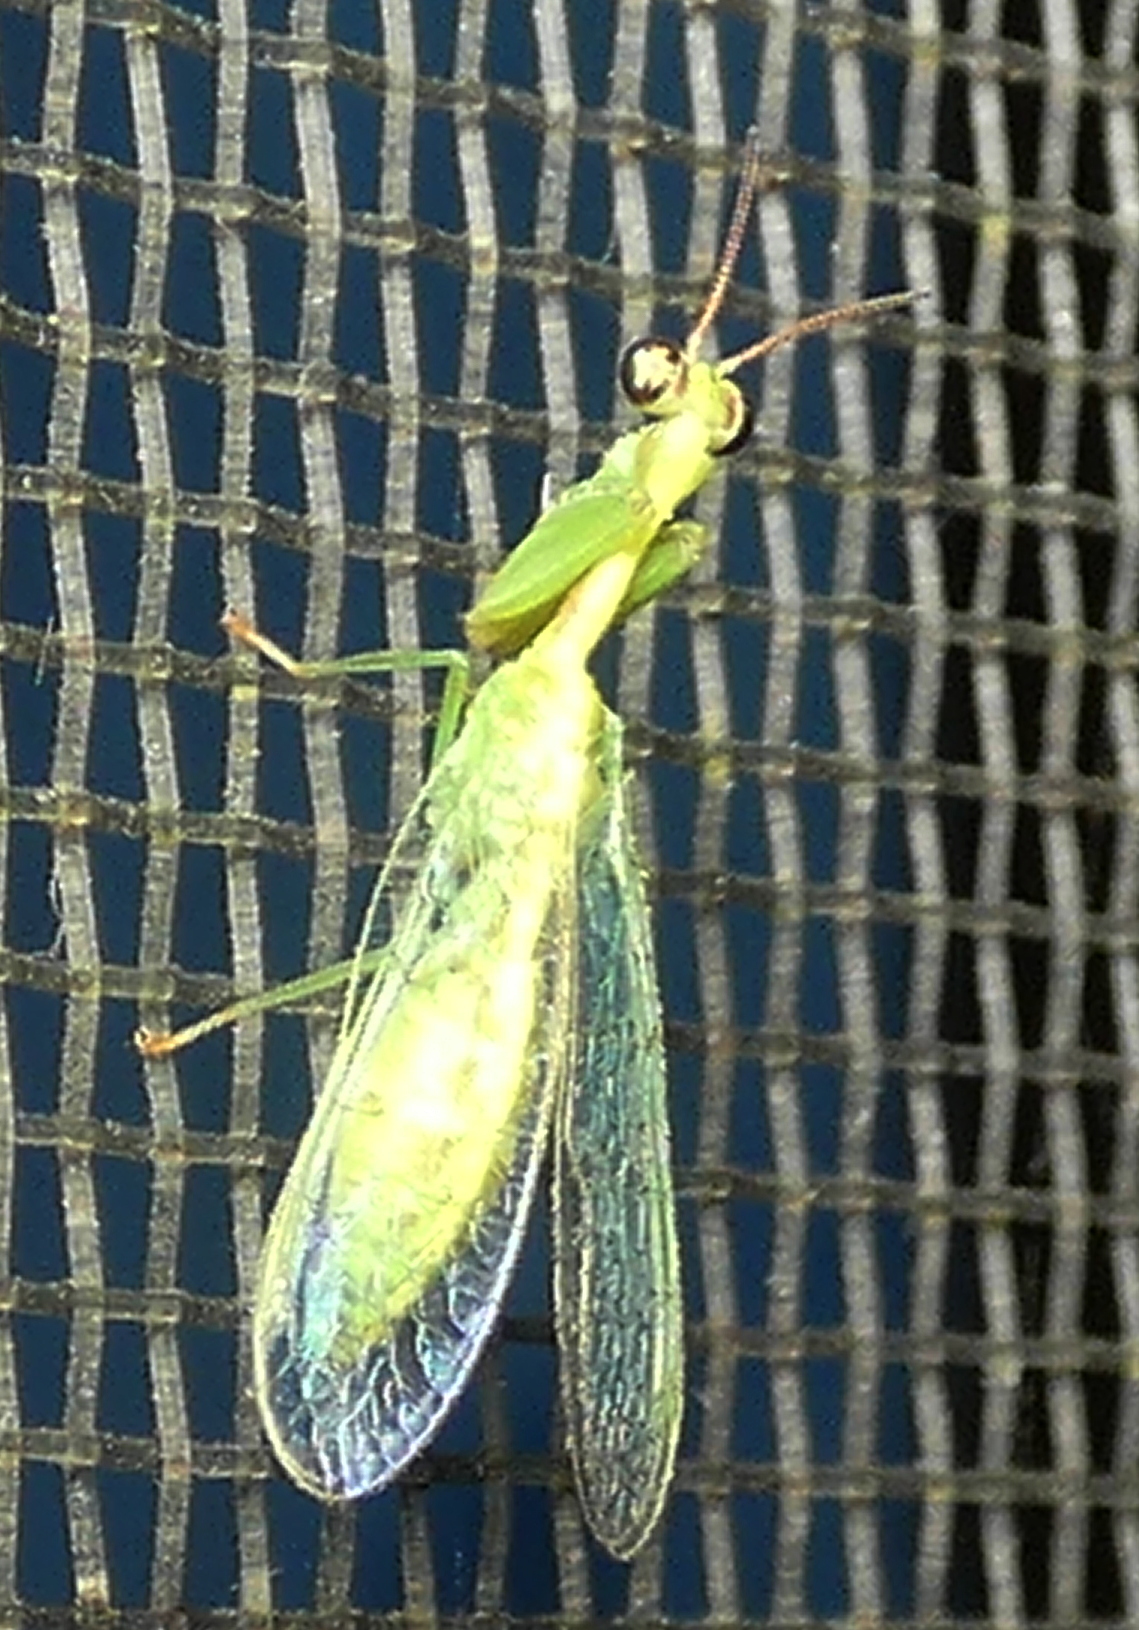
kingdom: Animalia
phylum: Arthropoda
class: Insecta
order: Neuroptera
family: Mantispidae
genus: Zeugomantispa
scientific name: Zeugomantispa virescens
